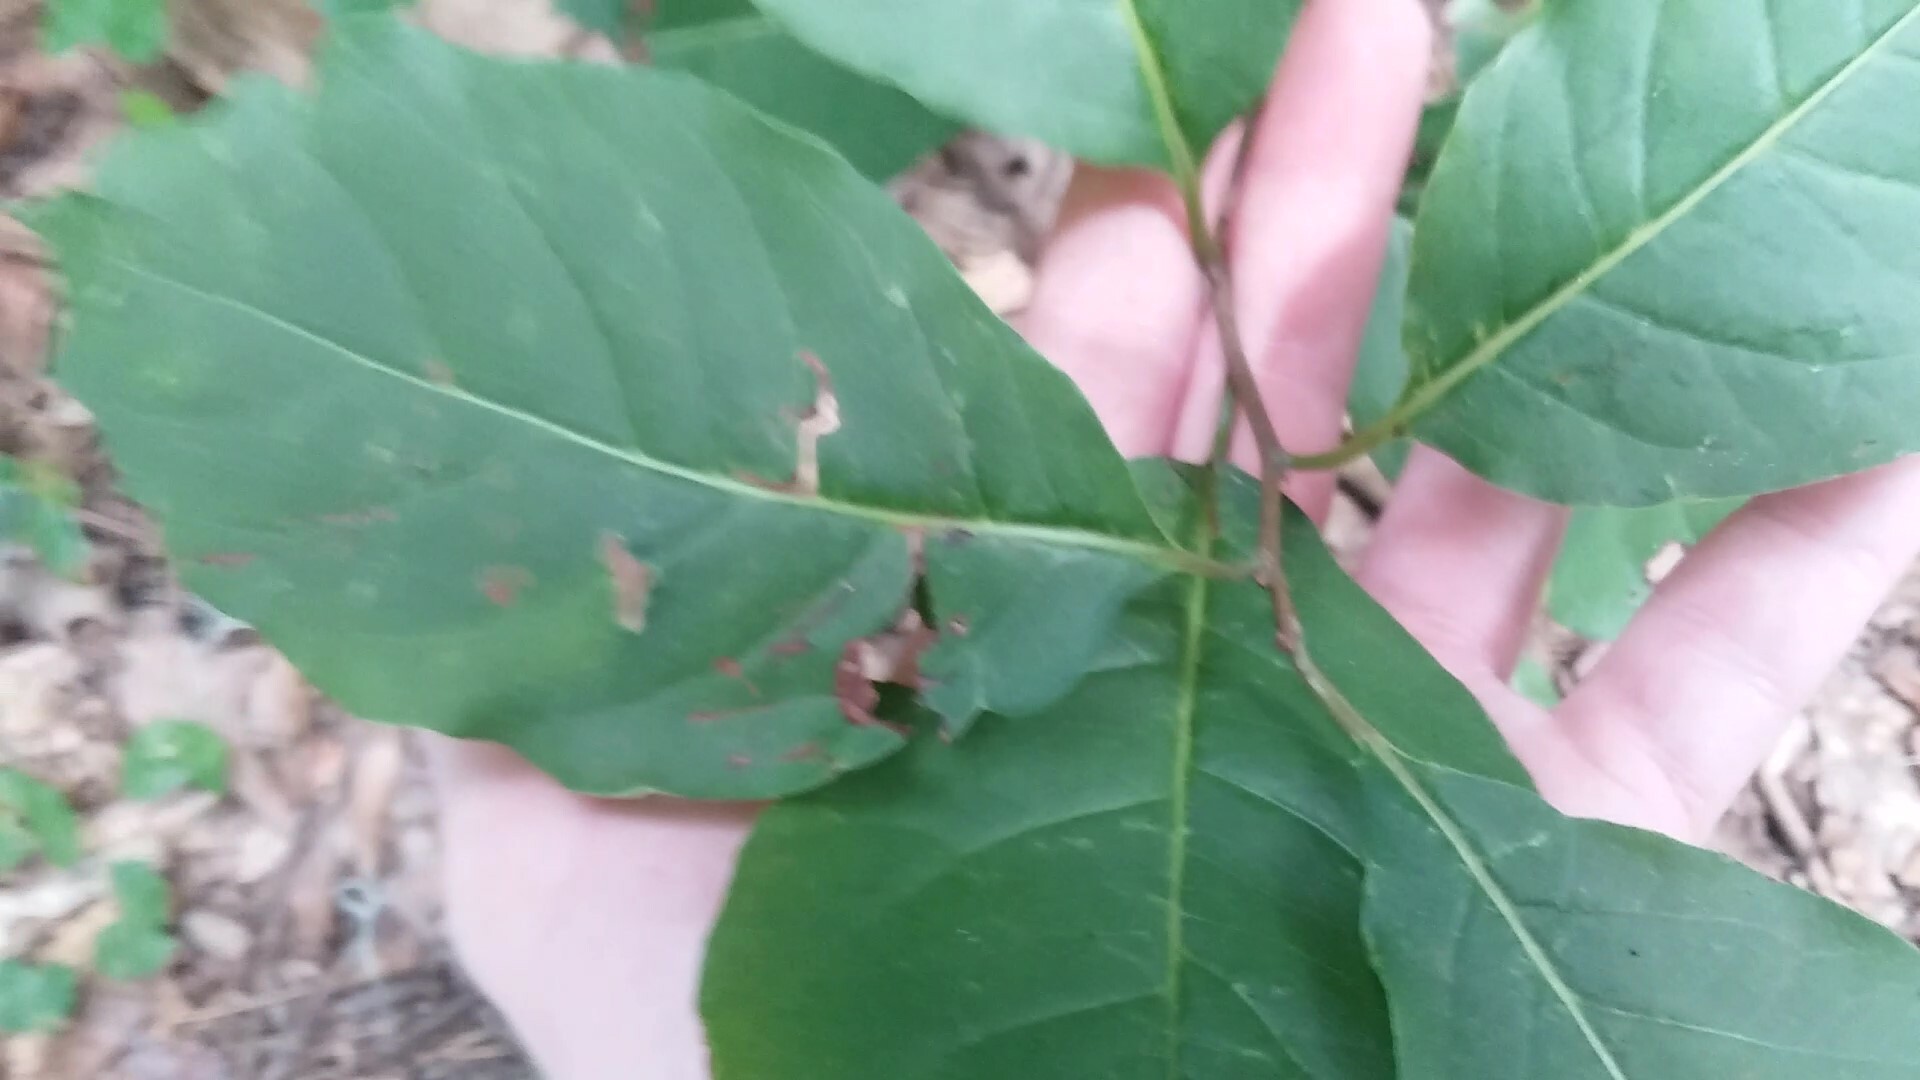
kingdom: Plantae
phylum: Tracheophyta
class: Magnoliopsida
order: Ericales
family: Ebenaceae
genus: Diospyros
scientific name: Diospyros virginiana
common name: Persimmon
